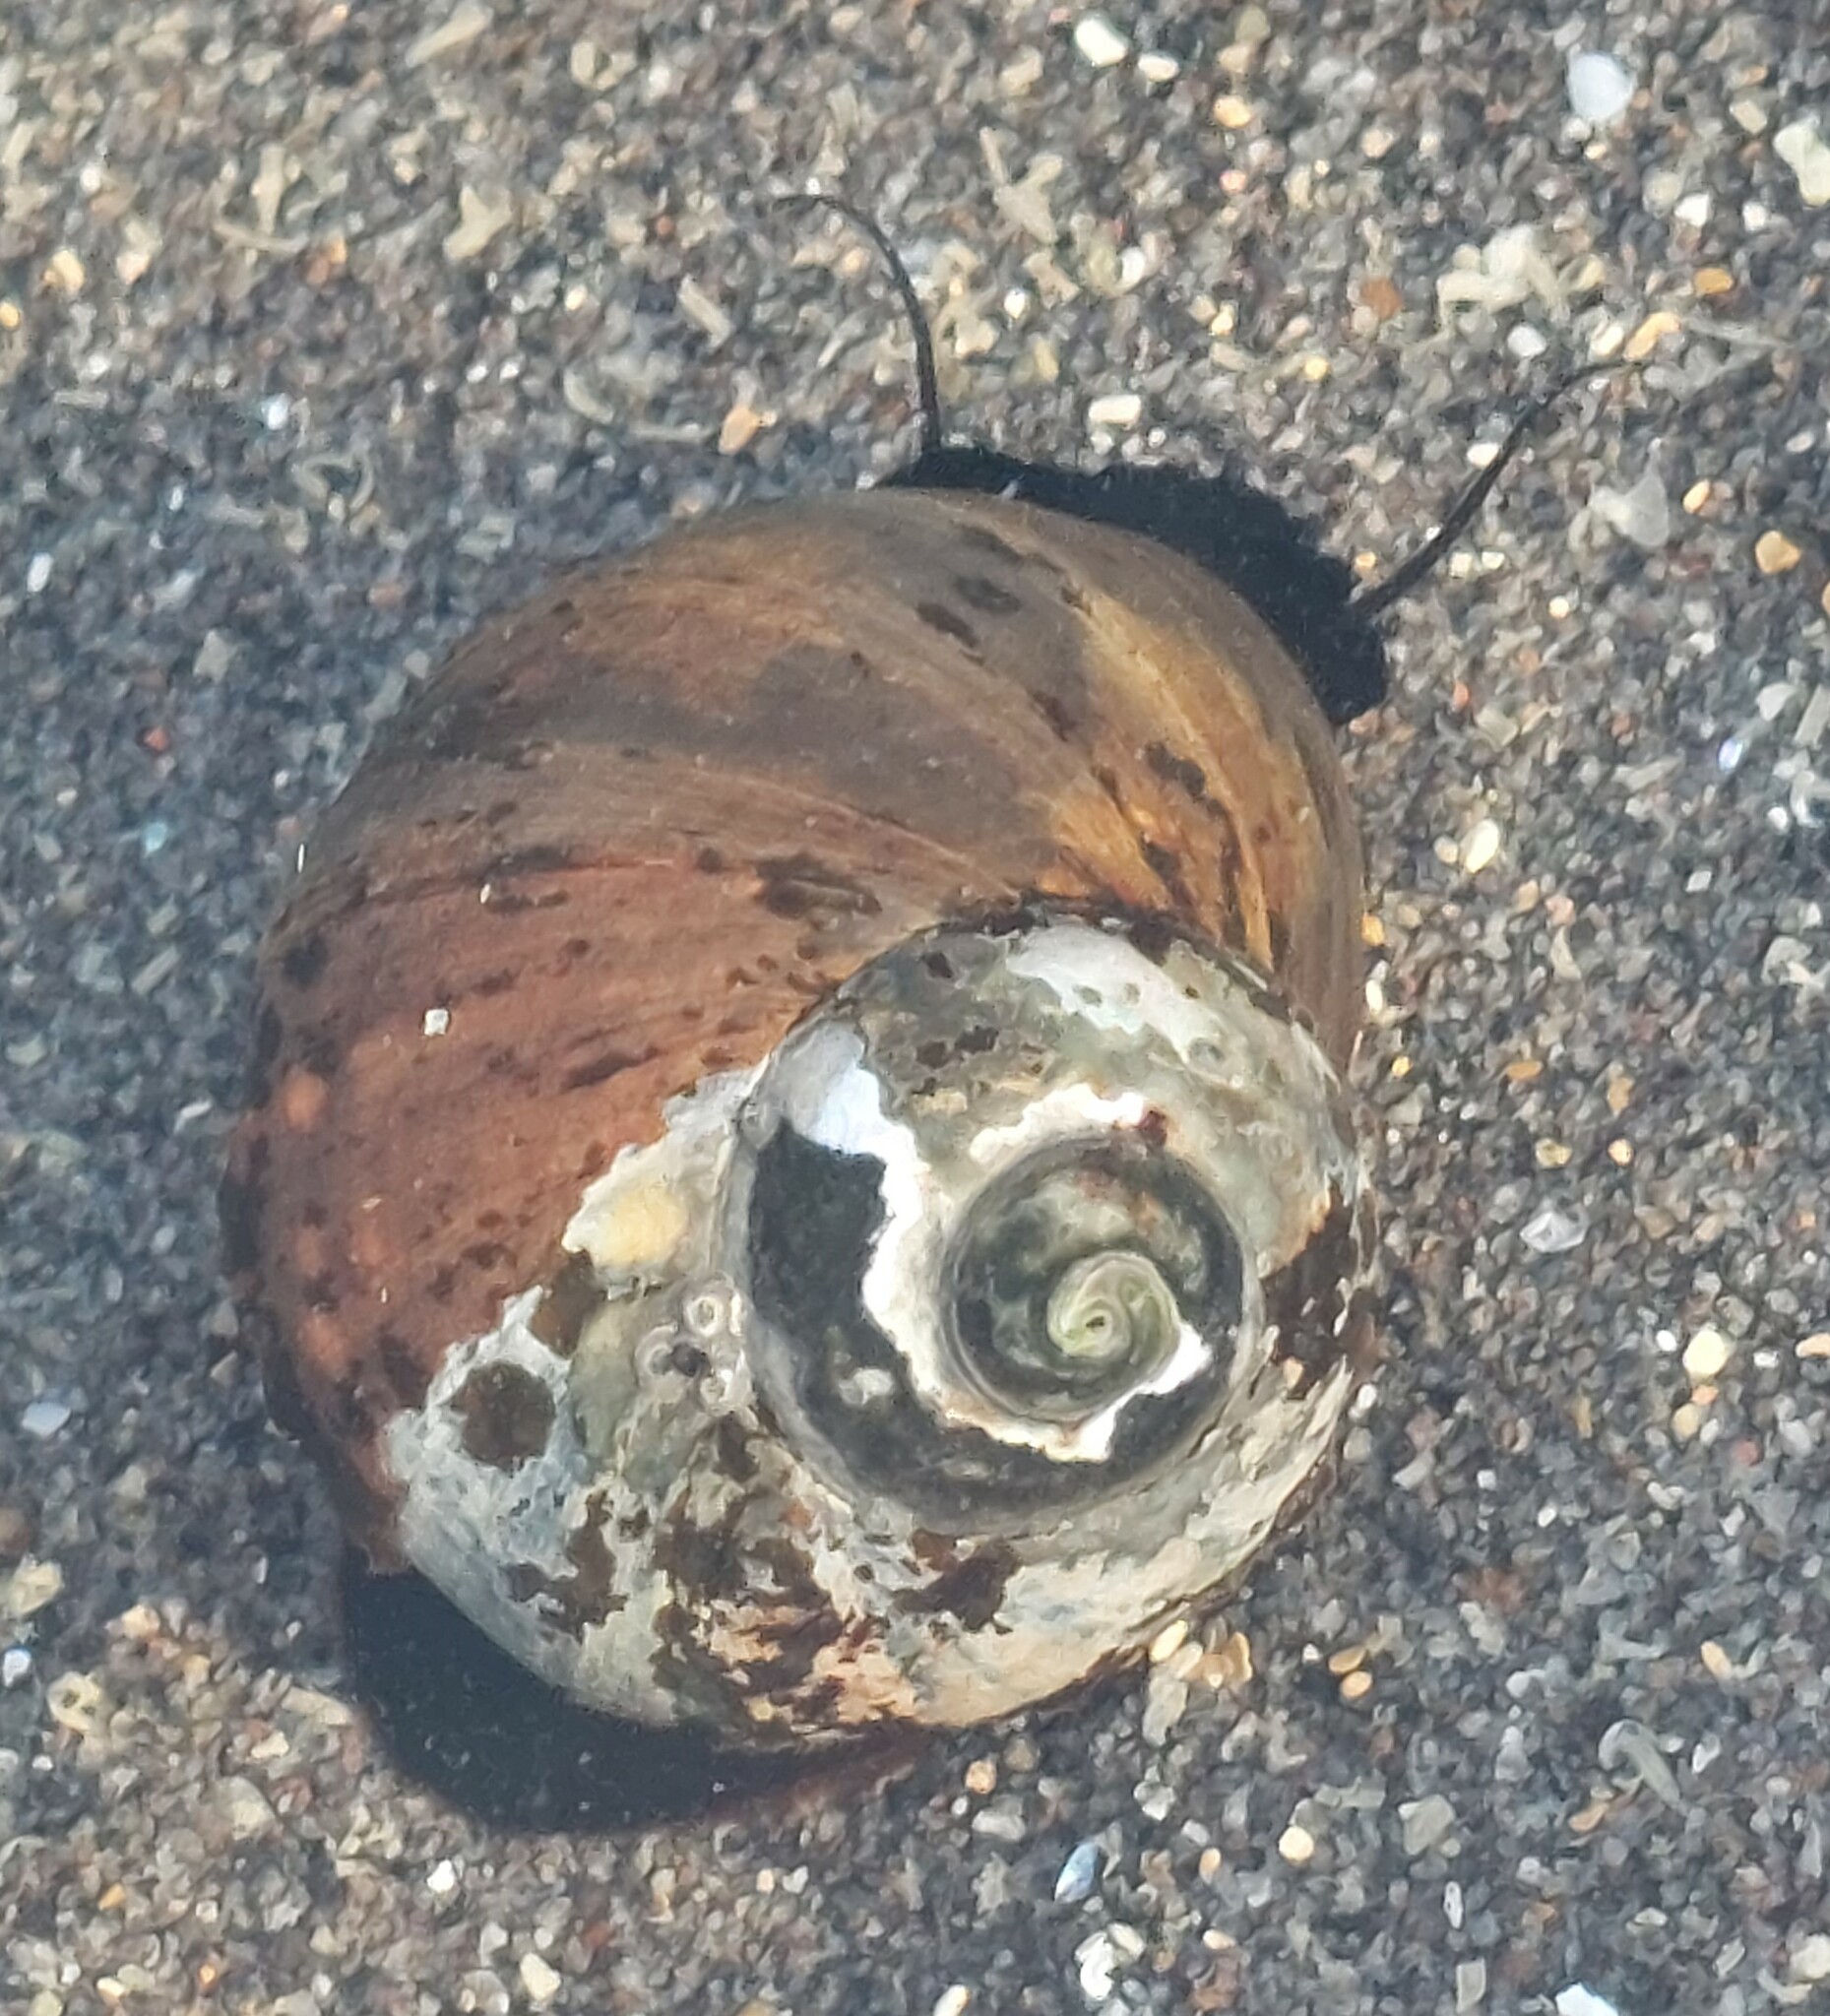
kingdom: Animalia
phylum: Mollusca
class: Gastropoda
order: Trochida
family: Turbinidae
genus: Lunella
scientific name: Lunella smaragda
